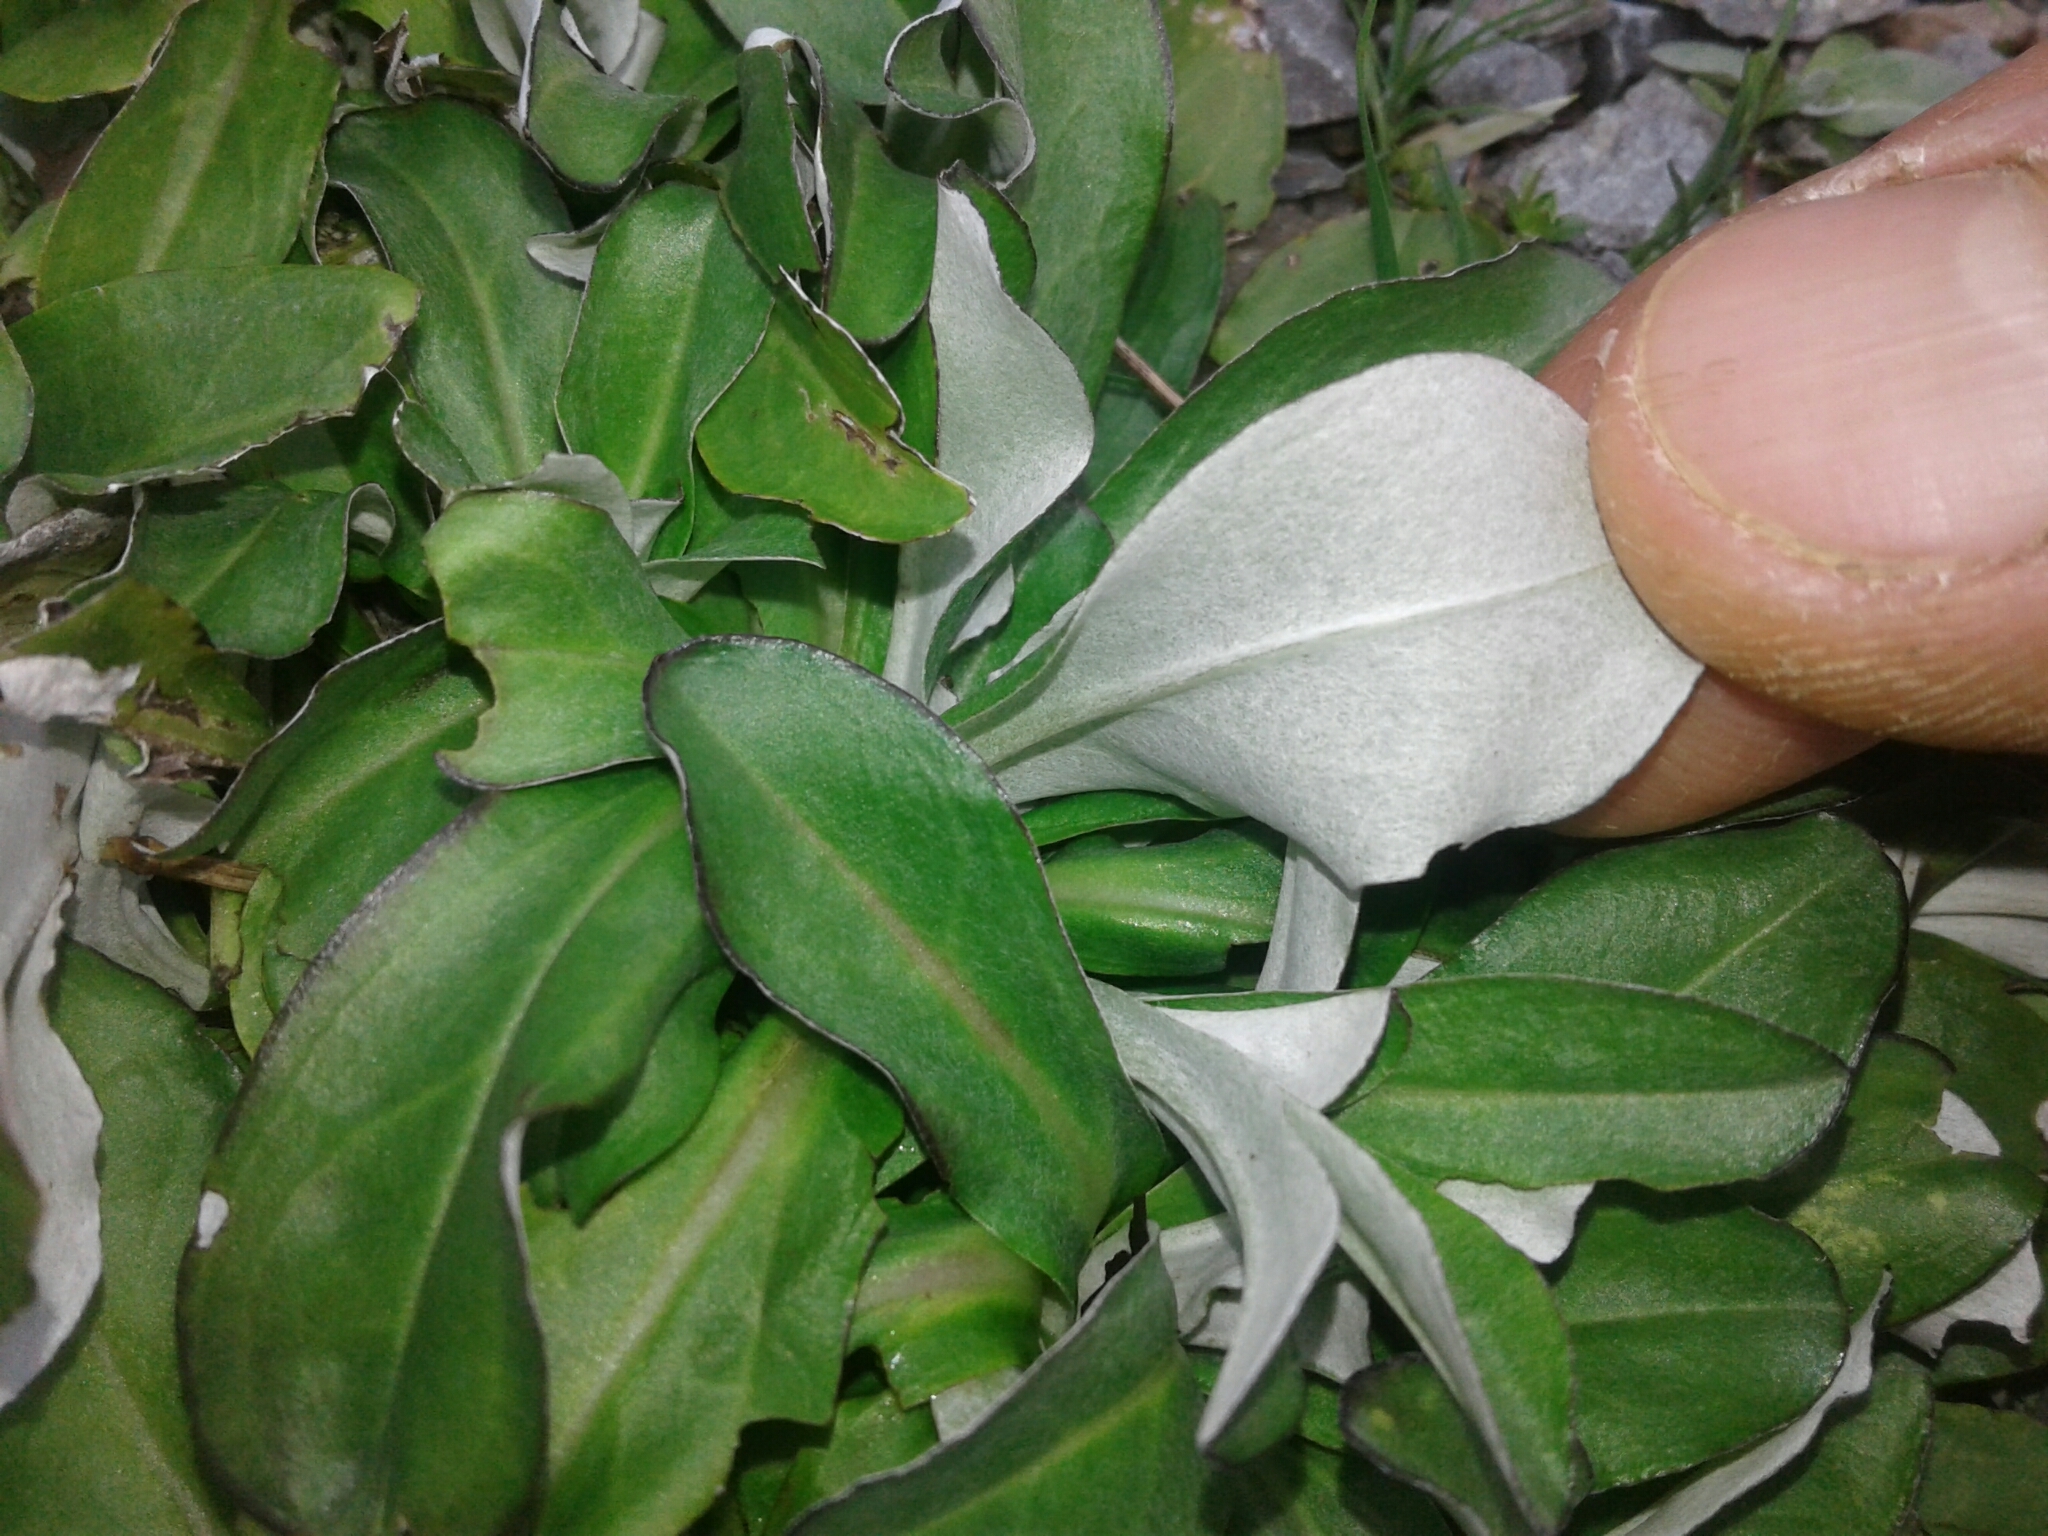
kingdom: Plantae
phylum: Tracheophyta
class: Magnoliopsida
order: Asterales
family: Asteraceae
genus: Gamochaeta
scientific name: Gamochaeta americana
